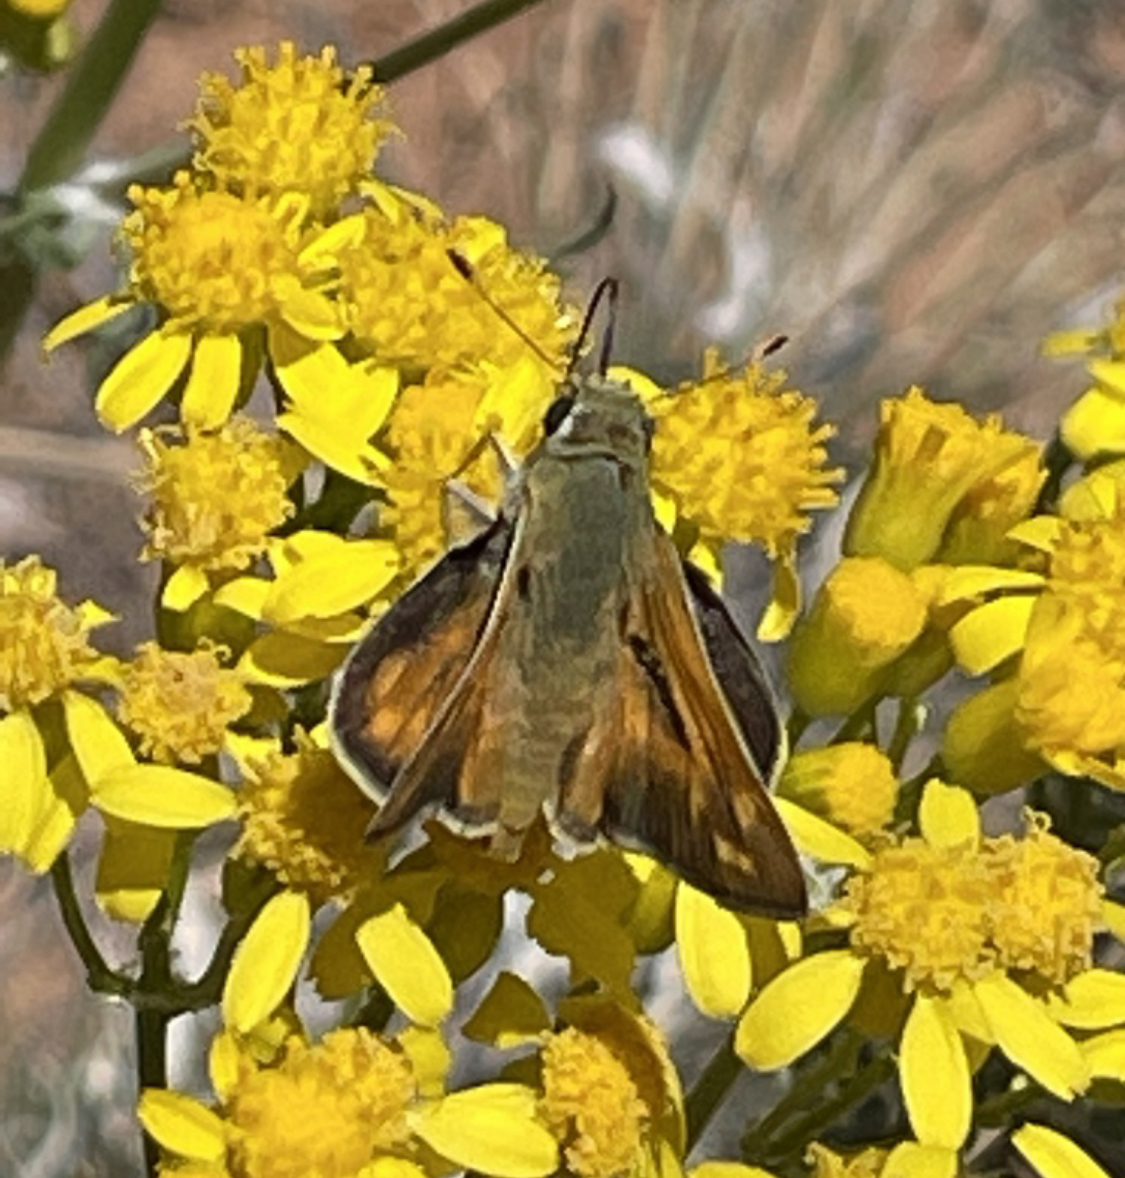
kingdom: Animalia
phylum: Arthropoda
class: Insecta
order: Lepidoptera
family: Hesperiidae
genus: Hesperia
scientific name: Hesperia pahaska
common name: Pahaska skipper
